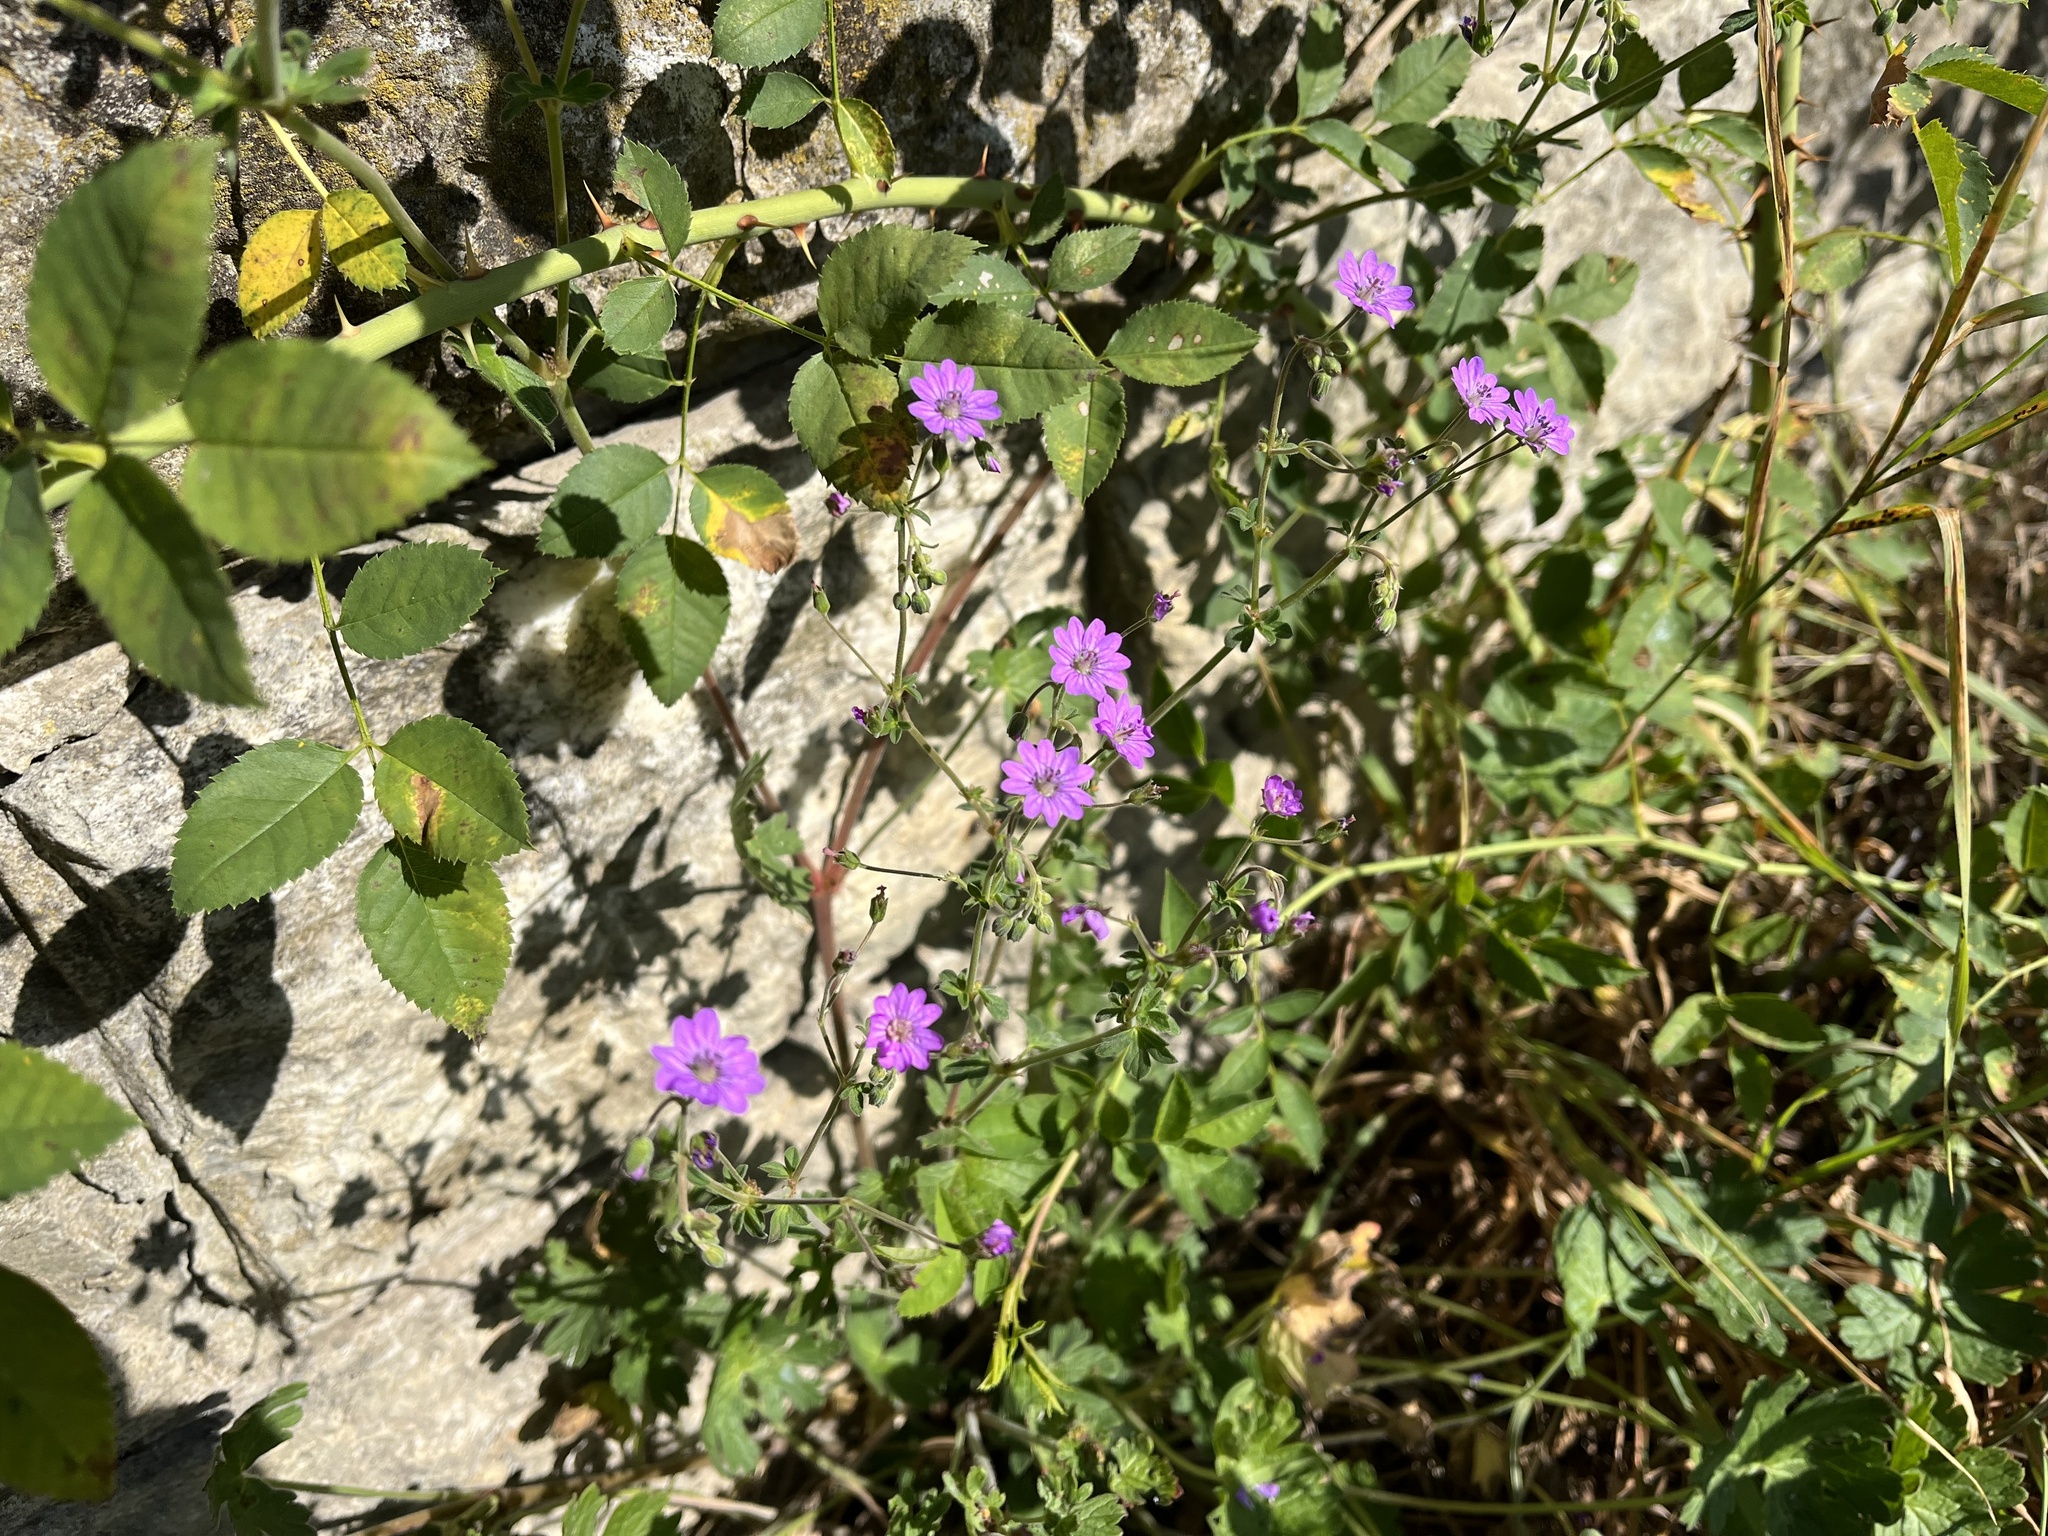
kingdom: Plantae
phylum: Tracheophyta
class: Magnoliopsida
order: Geraniales
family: Geraniaceae
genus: Geranium
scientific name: Geranium pyrenaicum
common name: Hedgerow crane's-bill
